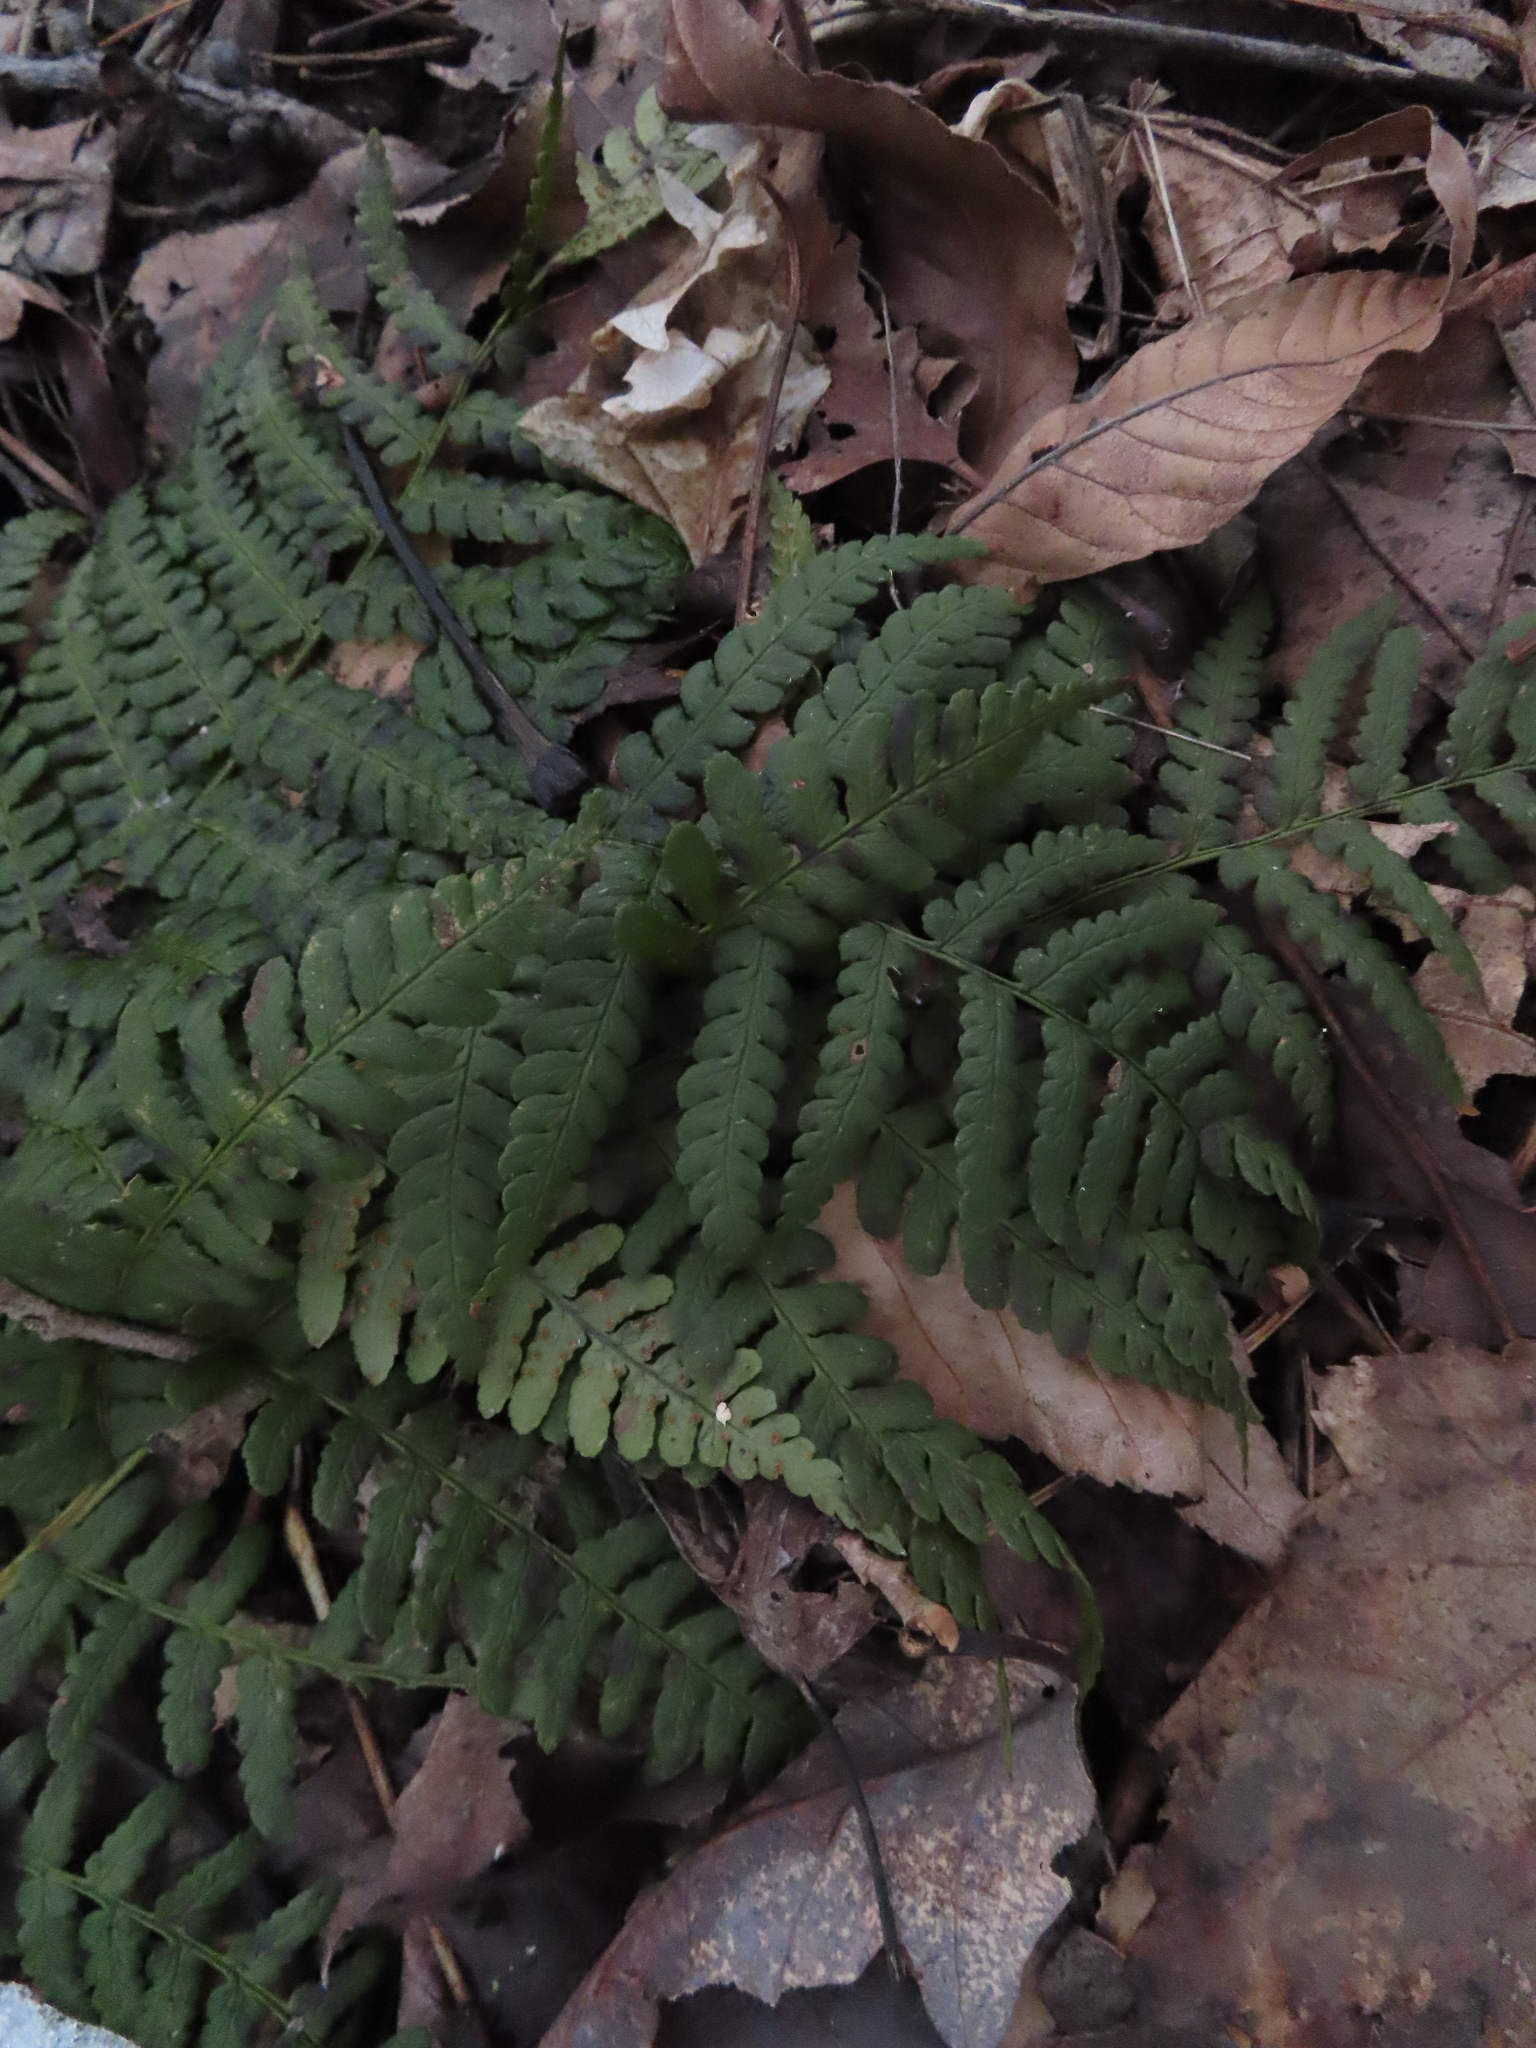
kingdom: Plantae
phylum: Tracheophyta
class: Polypodiopsida
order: Polypodiales
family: Dryopteridaceae
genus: Dryopteris
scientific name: Dryopteris marginalis
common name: Marginal wood fern
